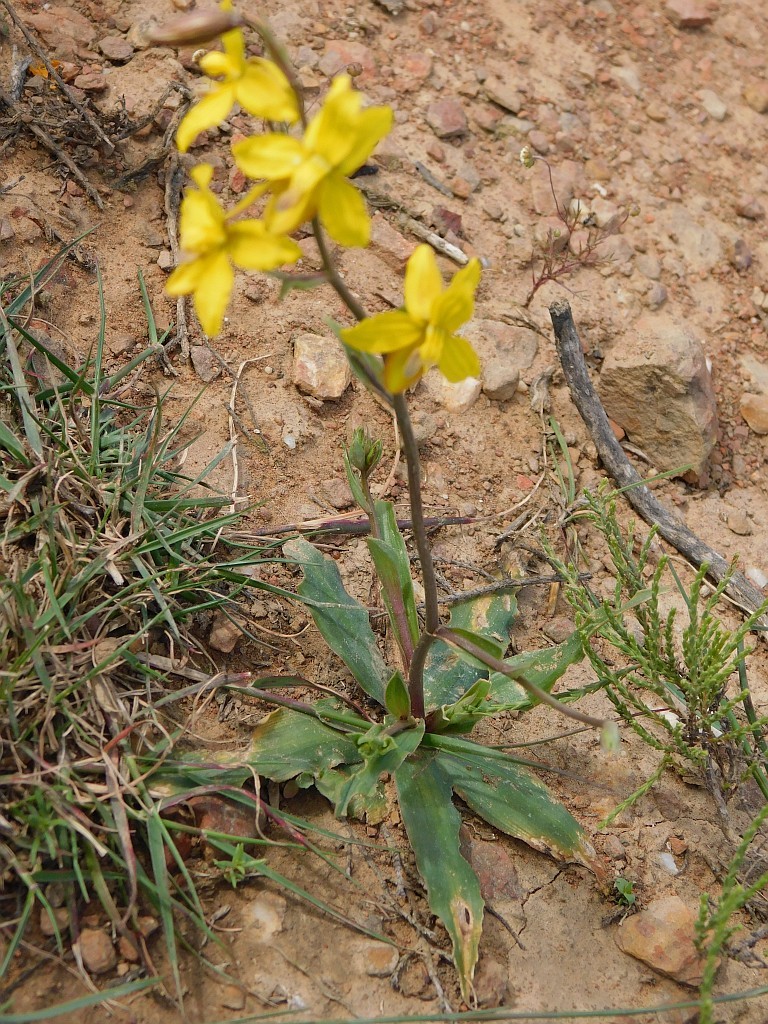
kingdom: Plantae
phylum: Tracheophyta
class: Liliopsida
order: Asparagales
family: Tecophilaeaceae
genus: Cyanella
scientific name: Cyanella lutea
